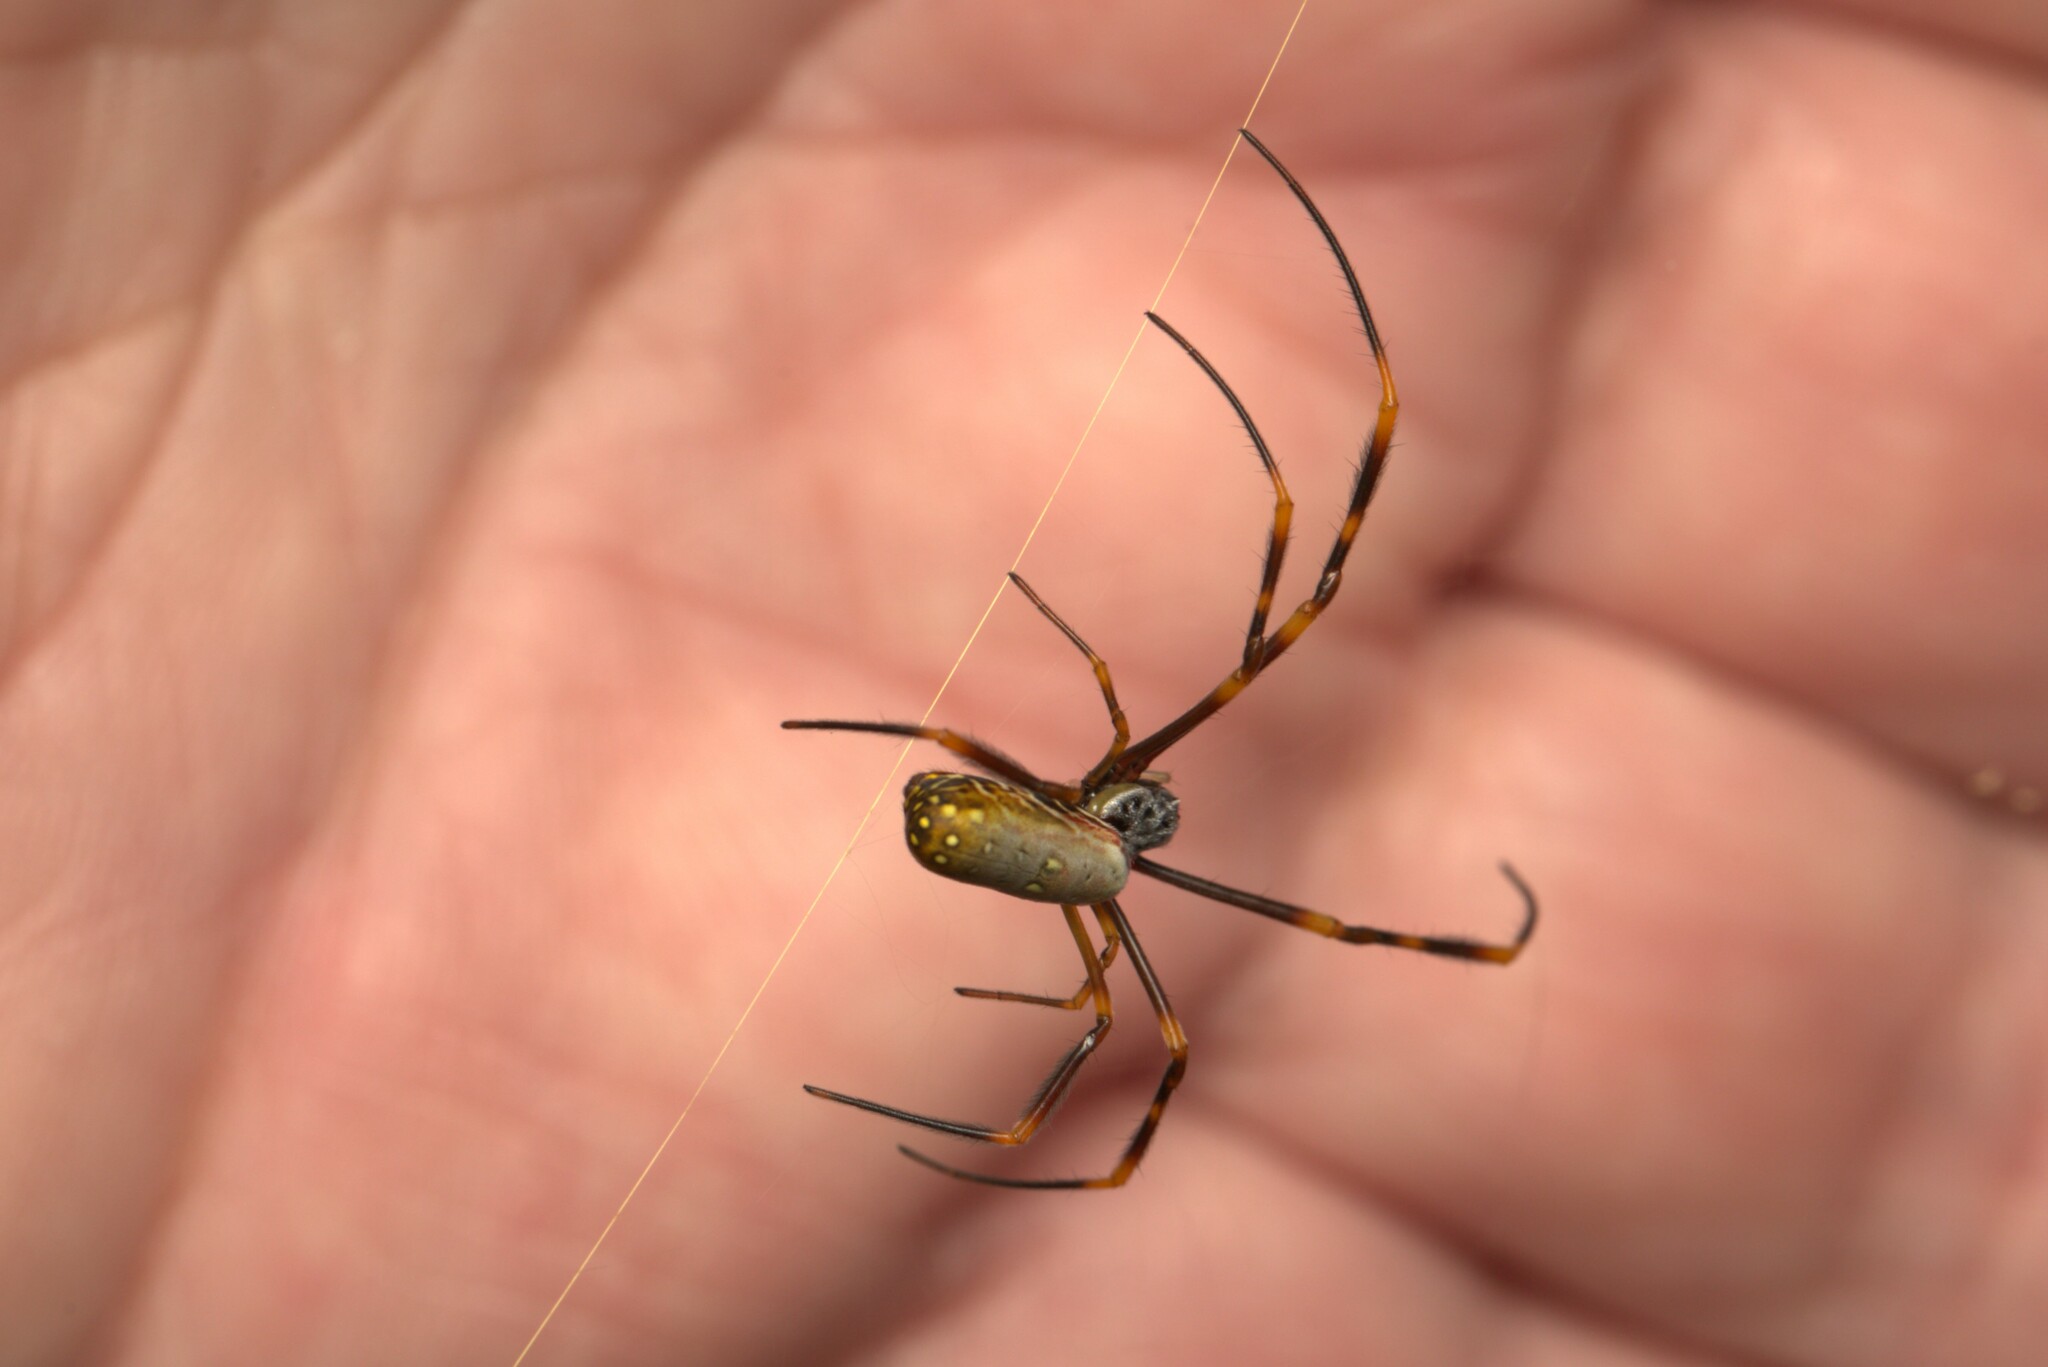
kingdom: Animalia
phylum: Arthropoda
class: Arachnida
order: Araneae
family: Araneidae
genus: Trichonephila
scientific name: Trichonephila plumipes
